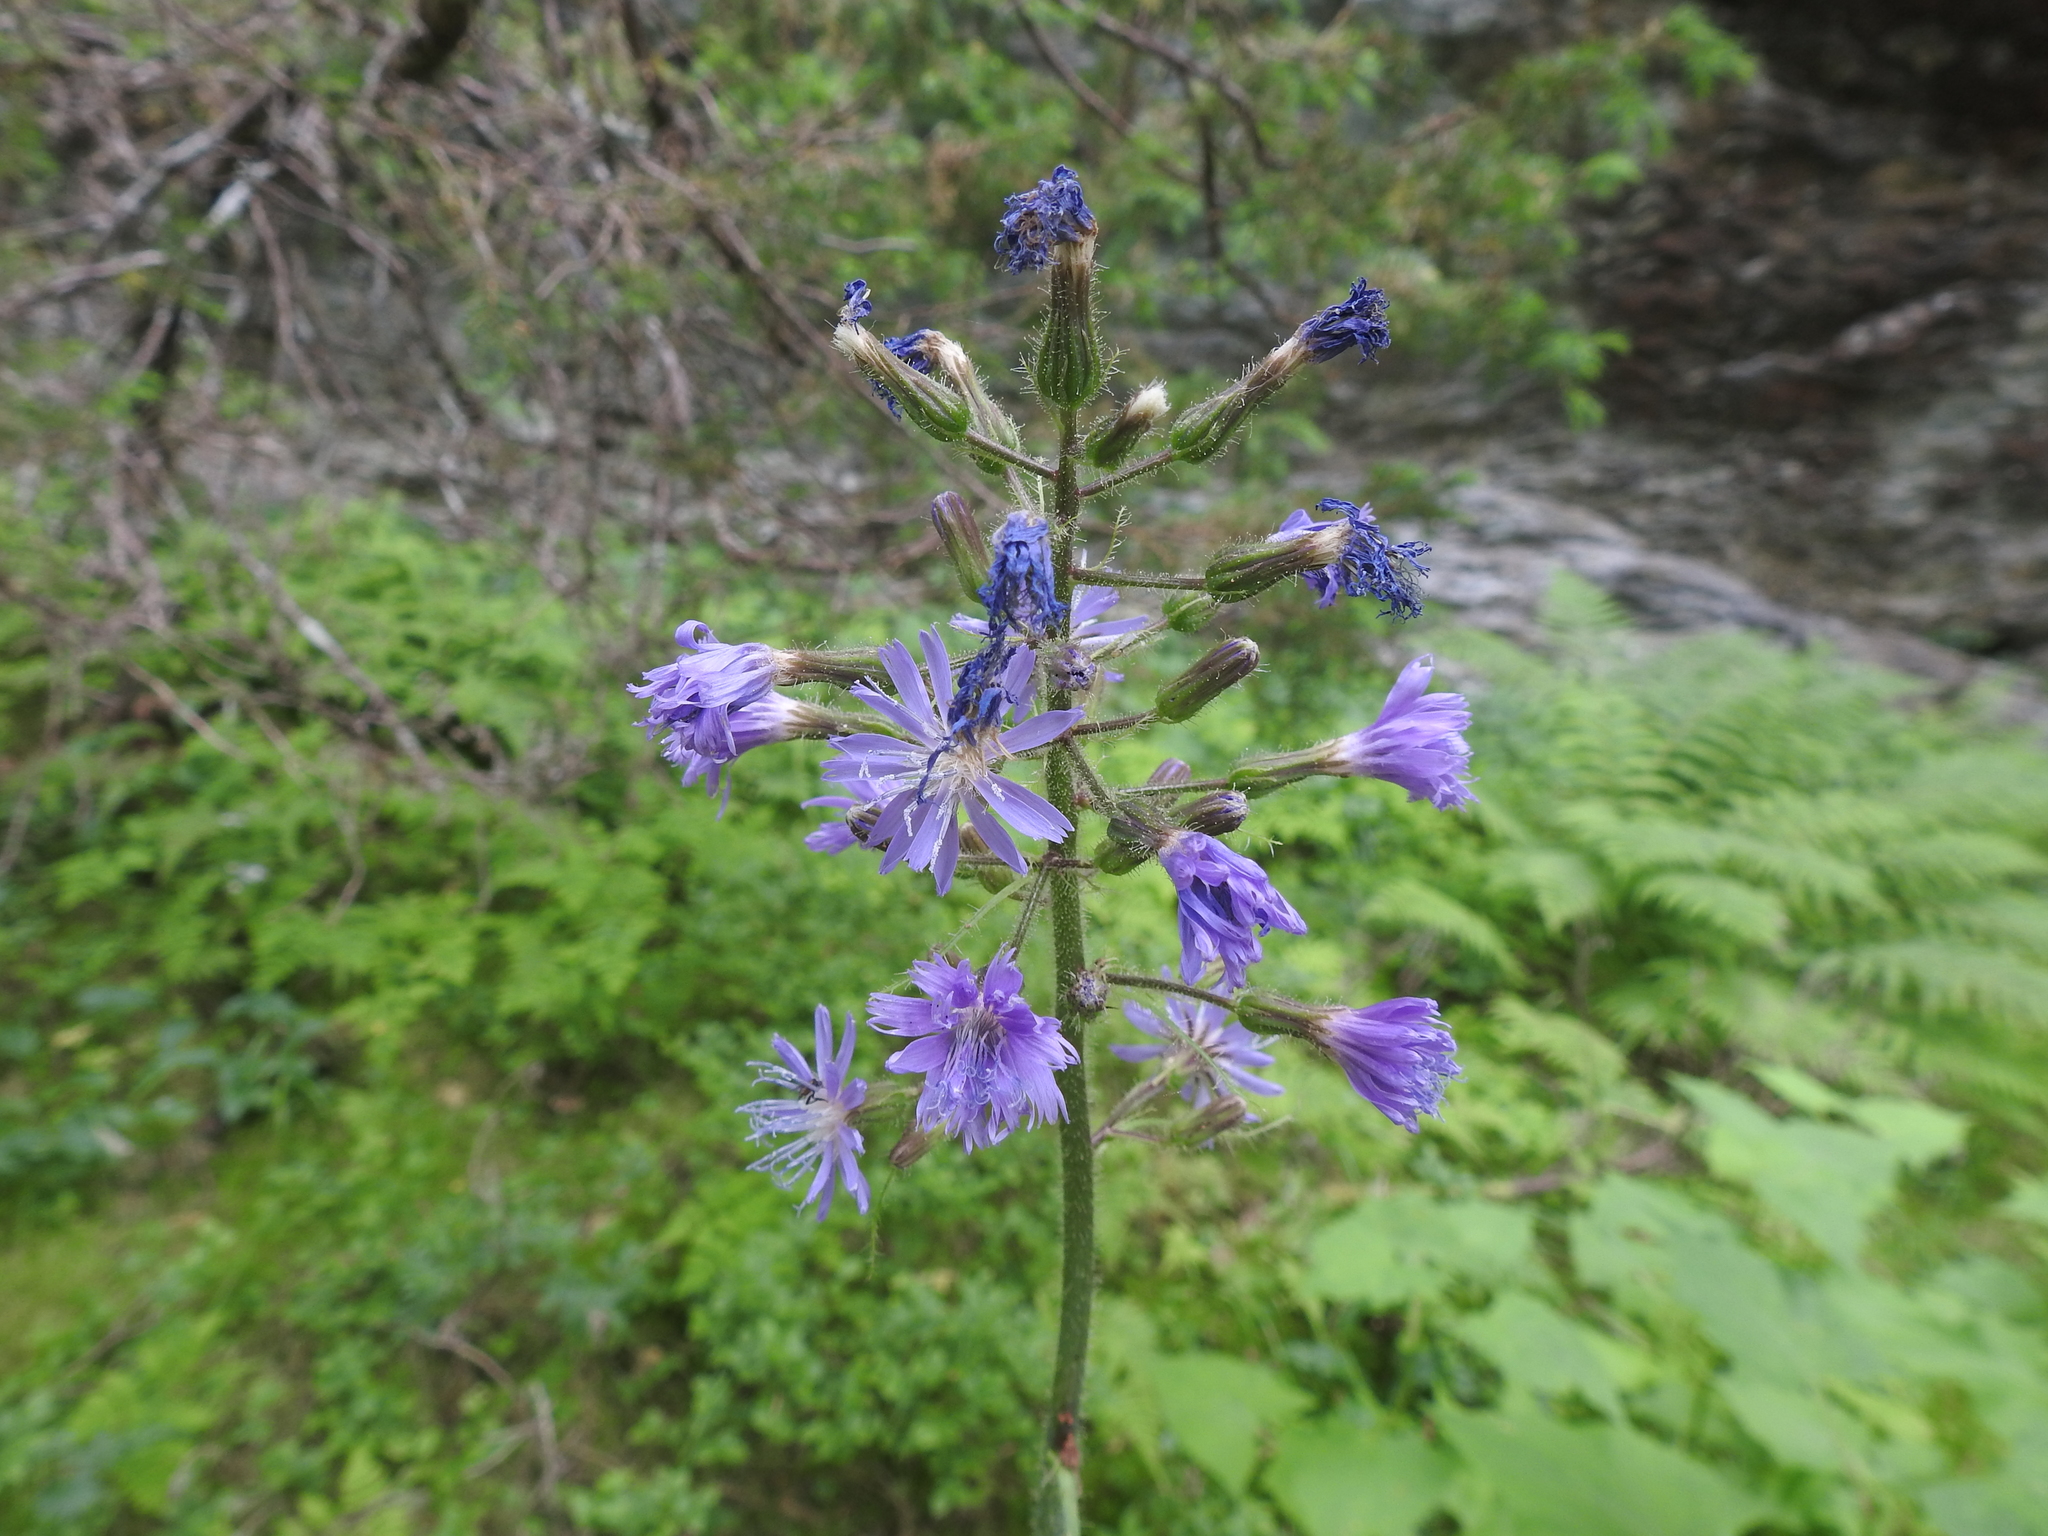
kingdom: Plantae
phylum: Tracheophyta
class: Magnoliopsida
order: Asterales
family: Asteraceae
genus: Cicerbita
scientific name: Cicerbita alpina
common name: Alpine blue-sow-thistle
